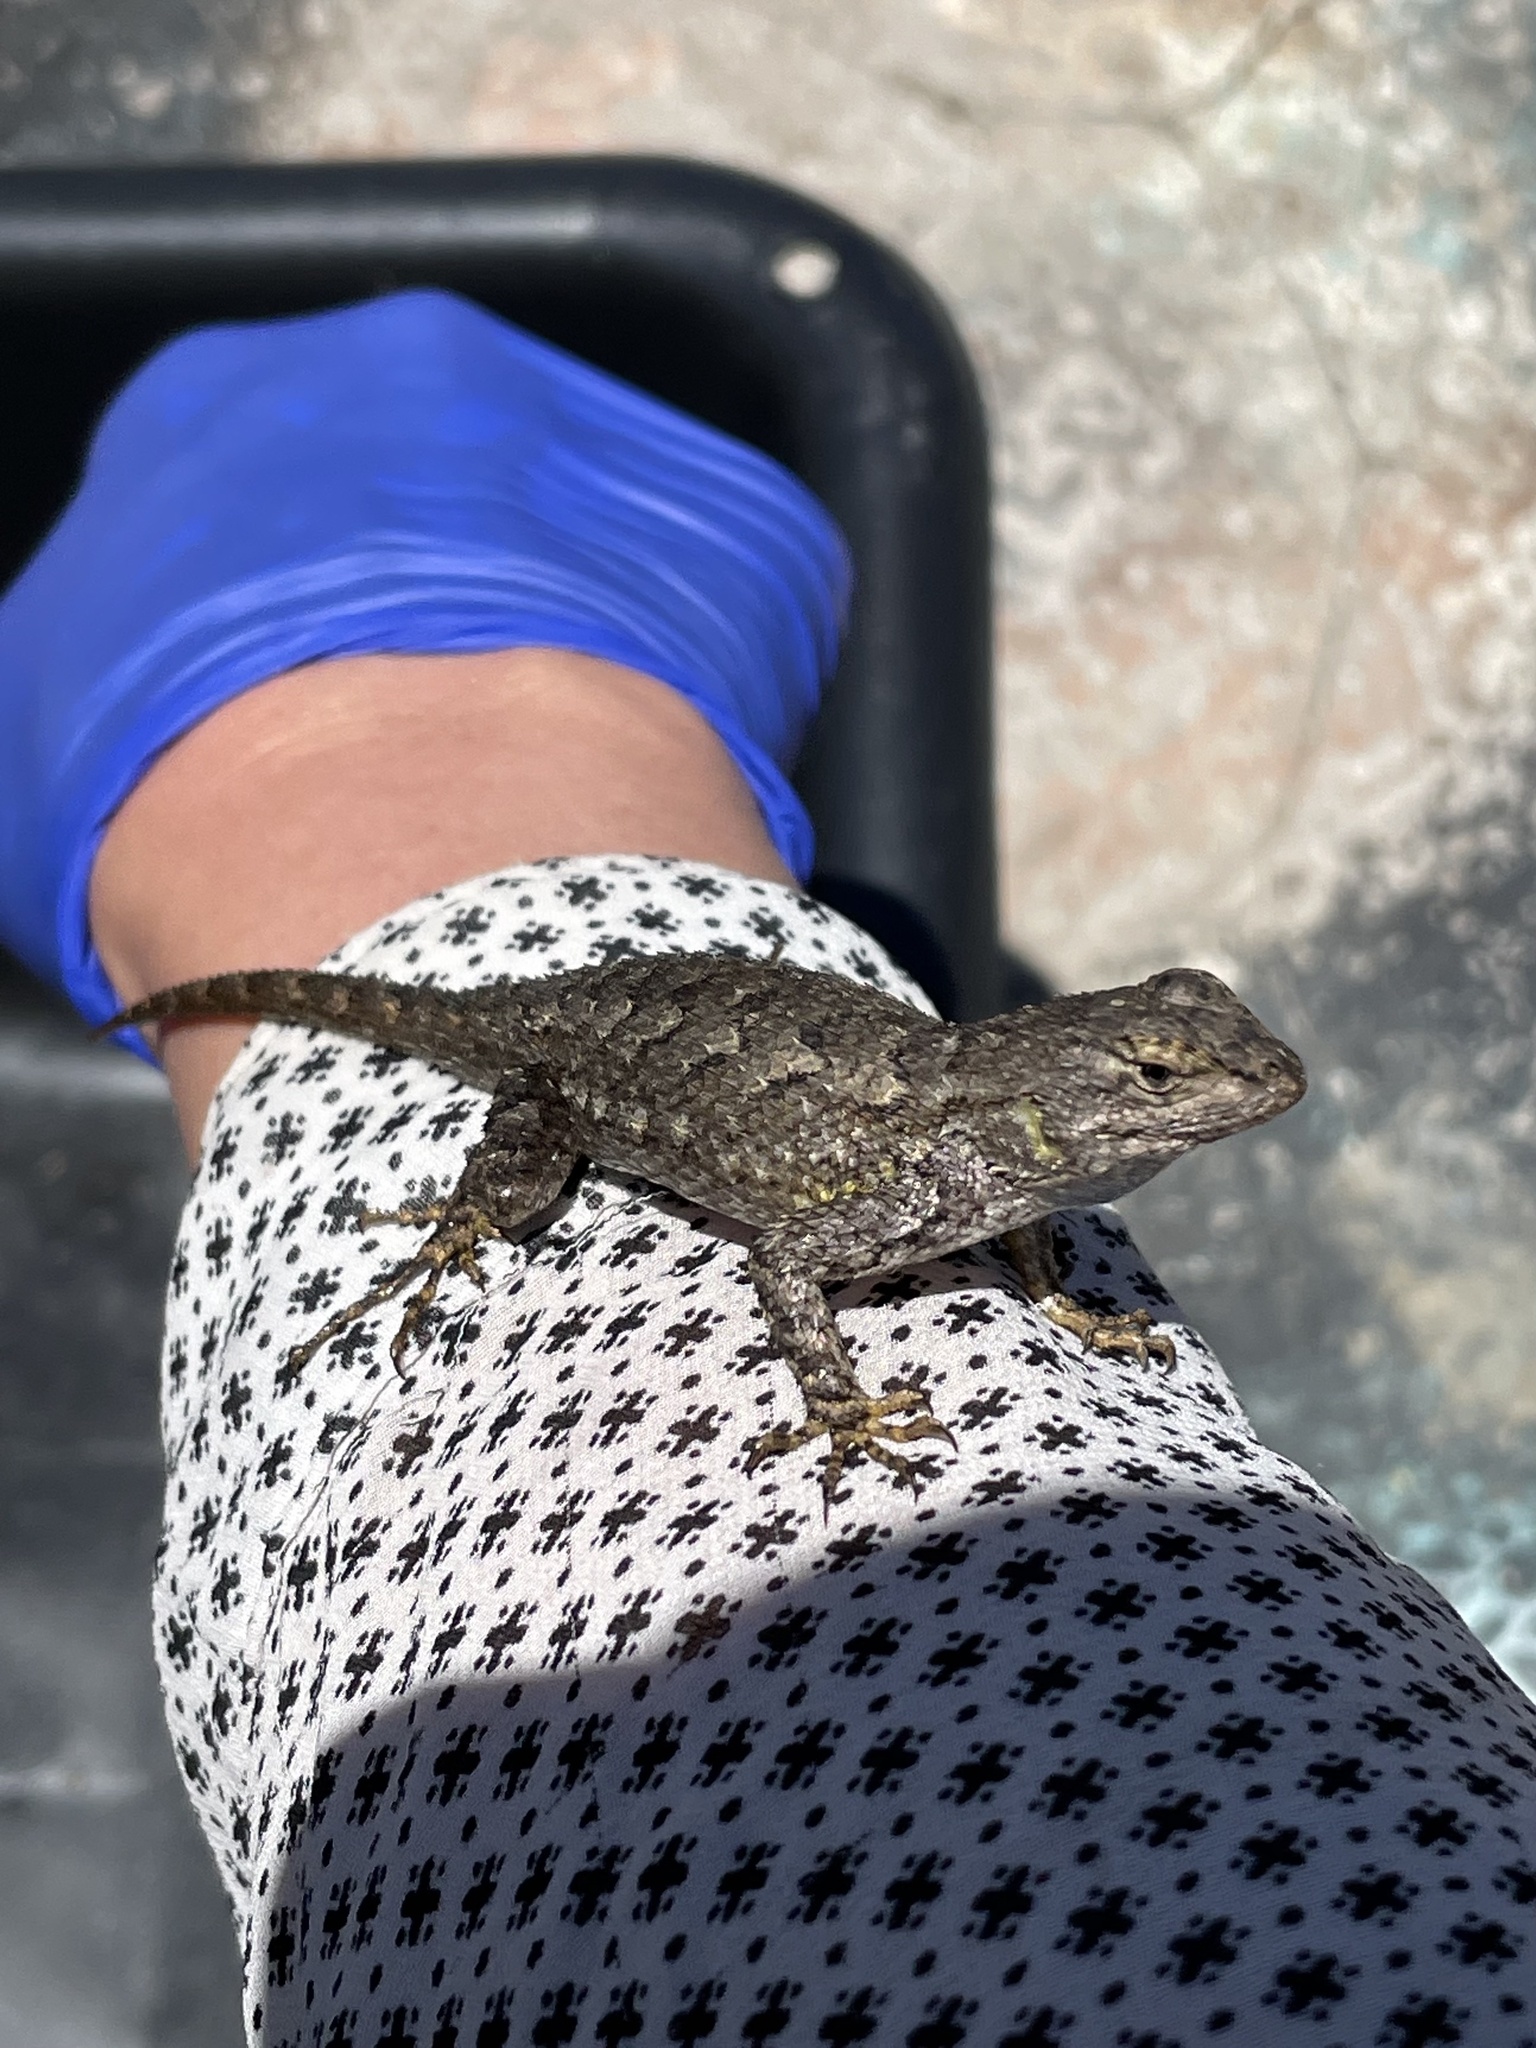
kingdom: Animalia
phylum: Chordata
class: Squamata
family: Phrynosomatidae
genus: Sceloporus
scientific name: Sceloporus occidentalis
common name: Western fence lizard
